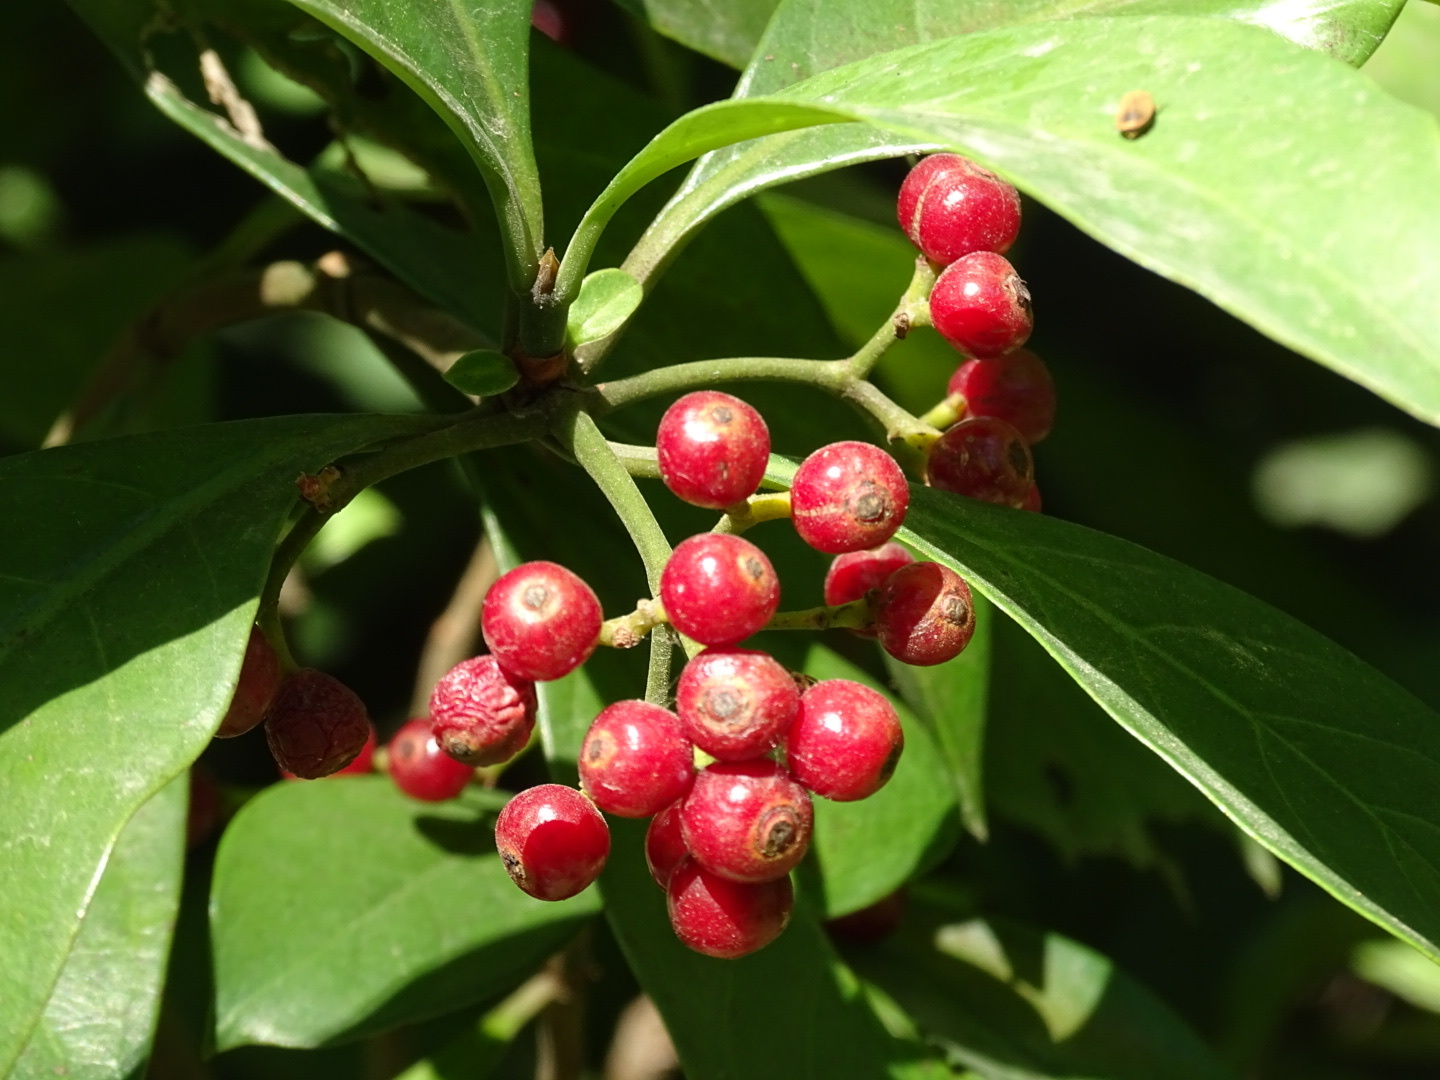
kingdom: Plantae
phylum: Tracheophyta
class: Magnoliopsida
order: Gentianales
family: Rubiaceae
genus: Psychotria
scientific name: Psychotria asiatica
